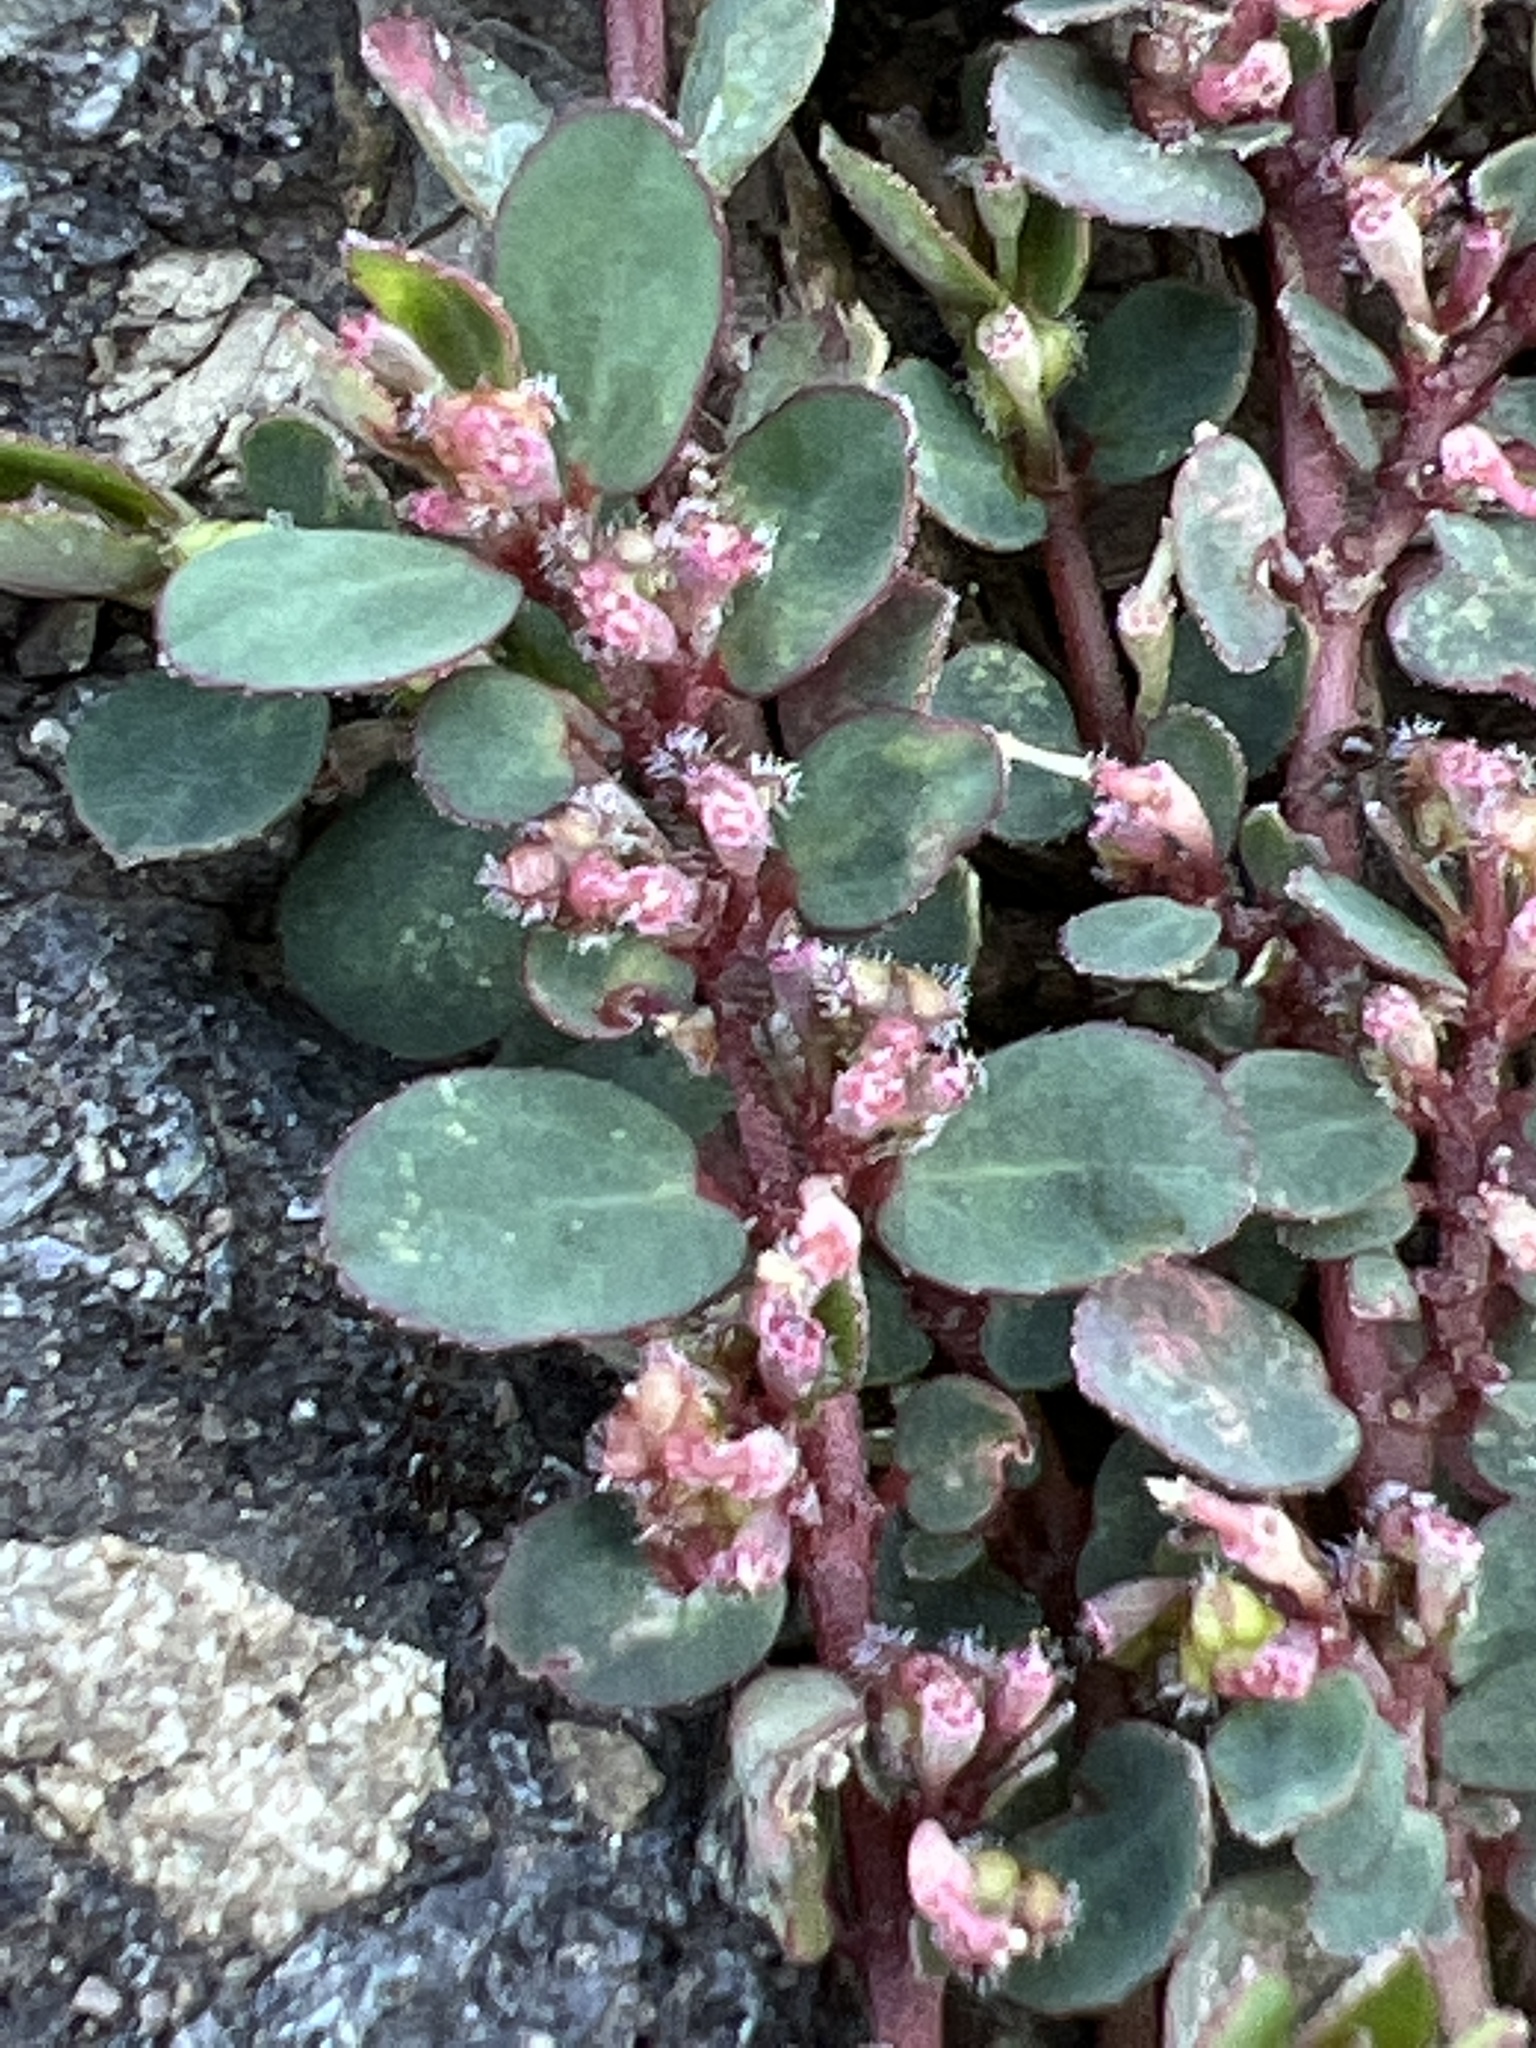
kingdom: Plantae
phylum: Tracheophyta
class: Magnoliopsida
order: Malpighiales
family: Euphorbiaceae
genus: Euphorbia
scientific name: Euphorbia prostrata
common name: Prostrate sandmat
